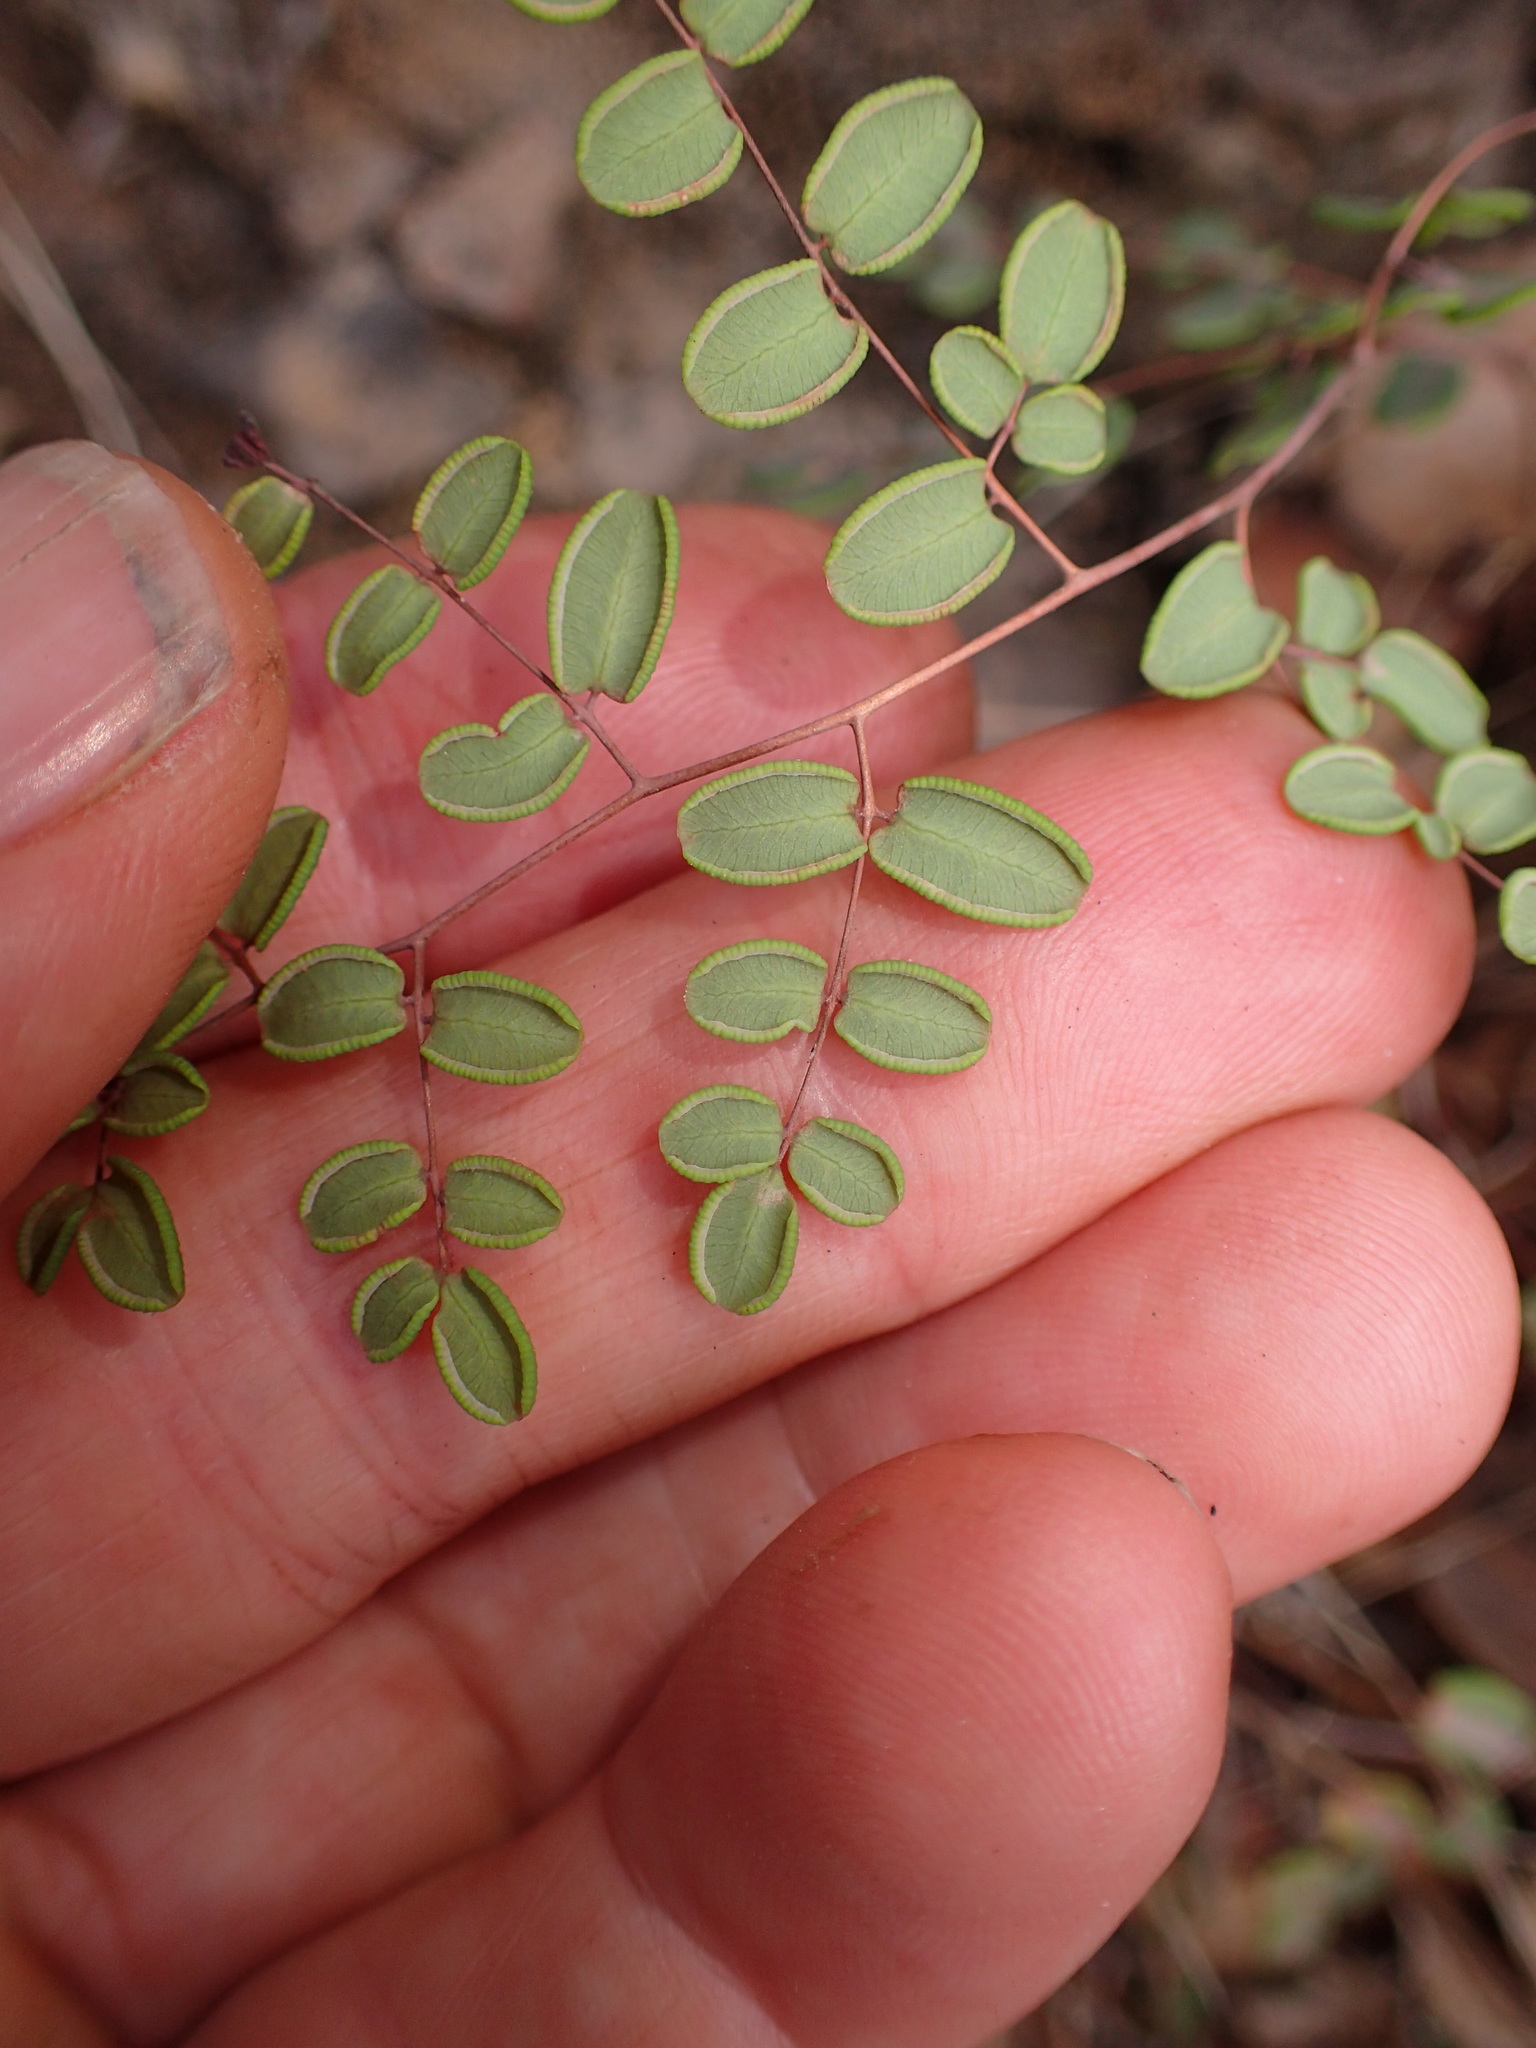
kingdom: Plantae
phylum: Tracheophyta
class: Polypodiopsida
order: Polypodiales
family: Pteridaceae
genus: Pellaea
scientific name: Pellaea andromedifolia
